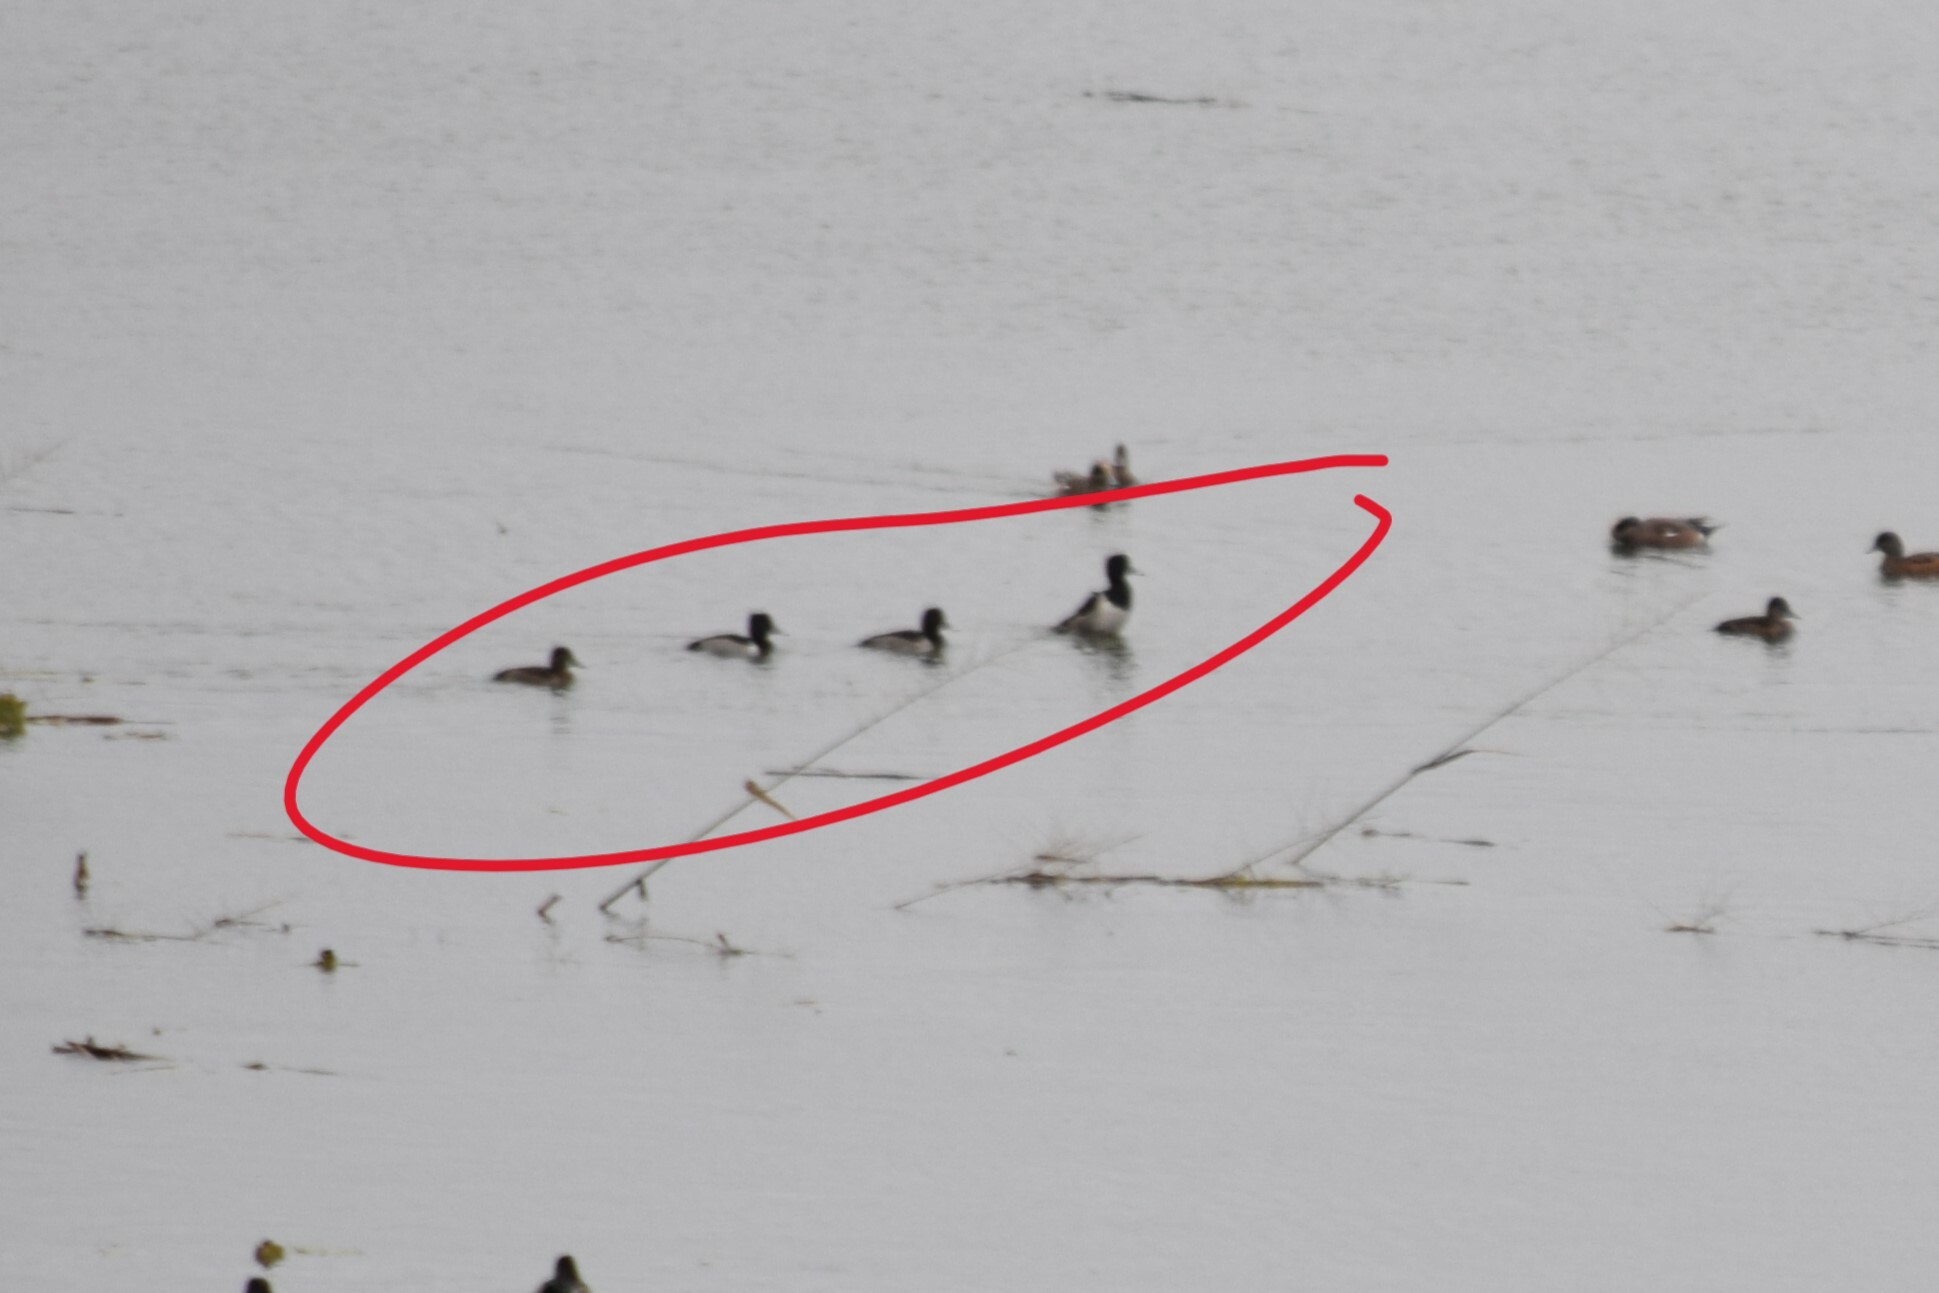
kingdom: Animalia
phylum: Chordata
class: Aves
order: Anseriformes
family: Anatidae
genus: Aythya
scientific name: Aythya collaris
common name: Ring-necked duck
